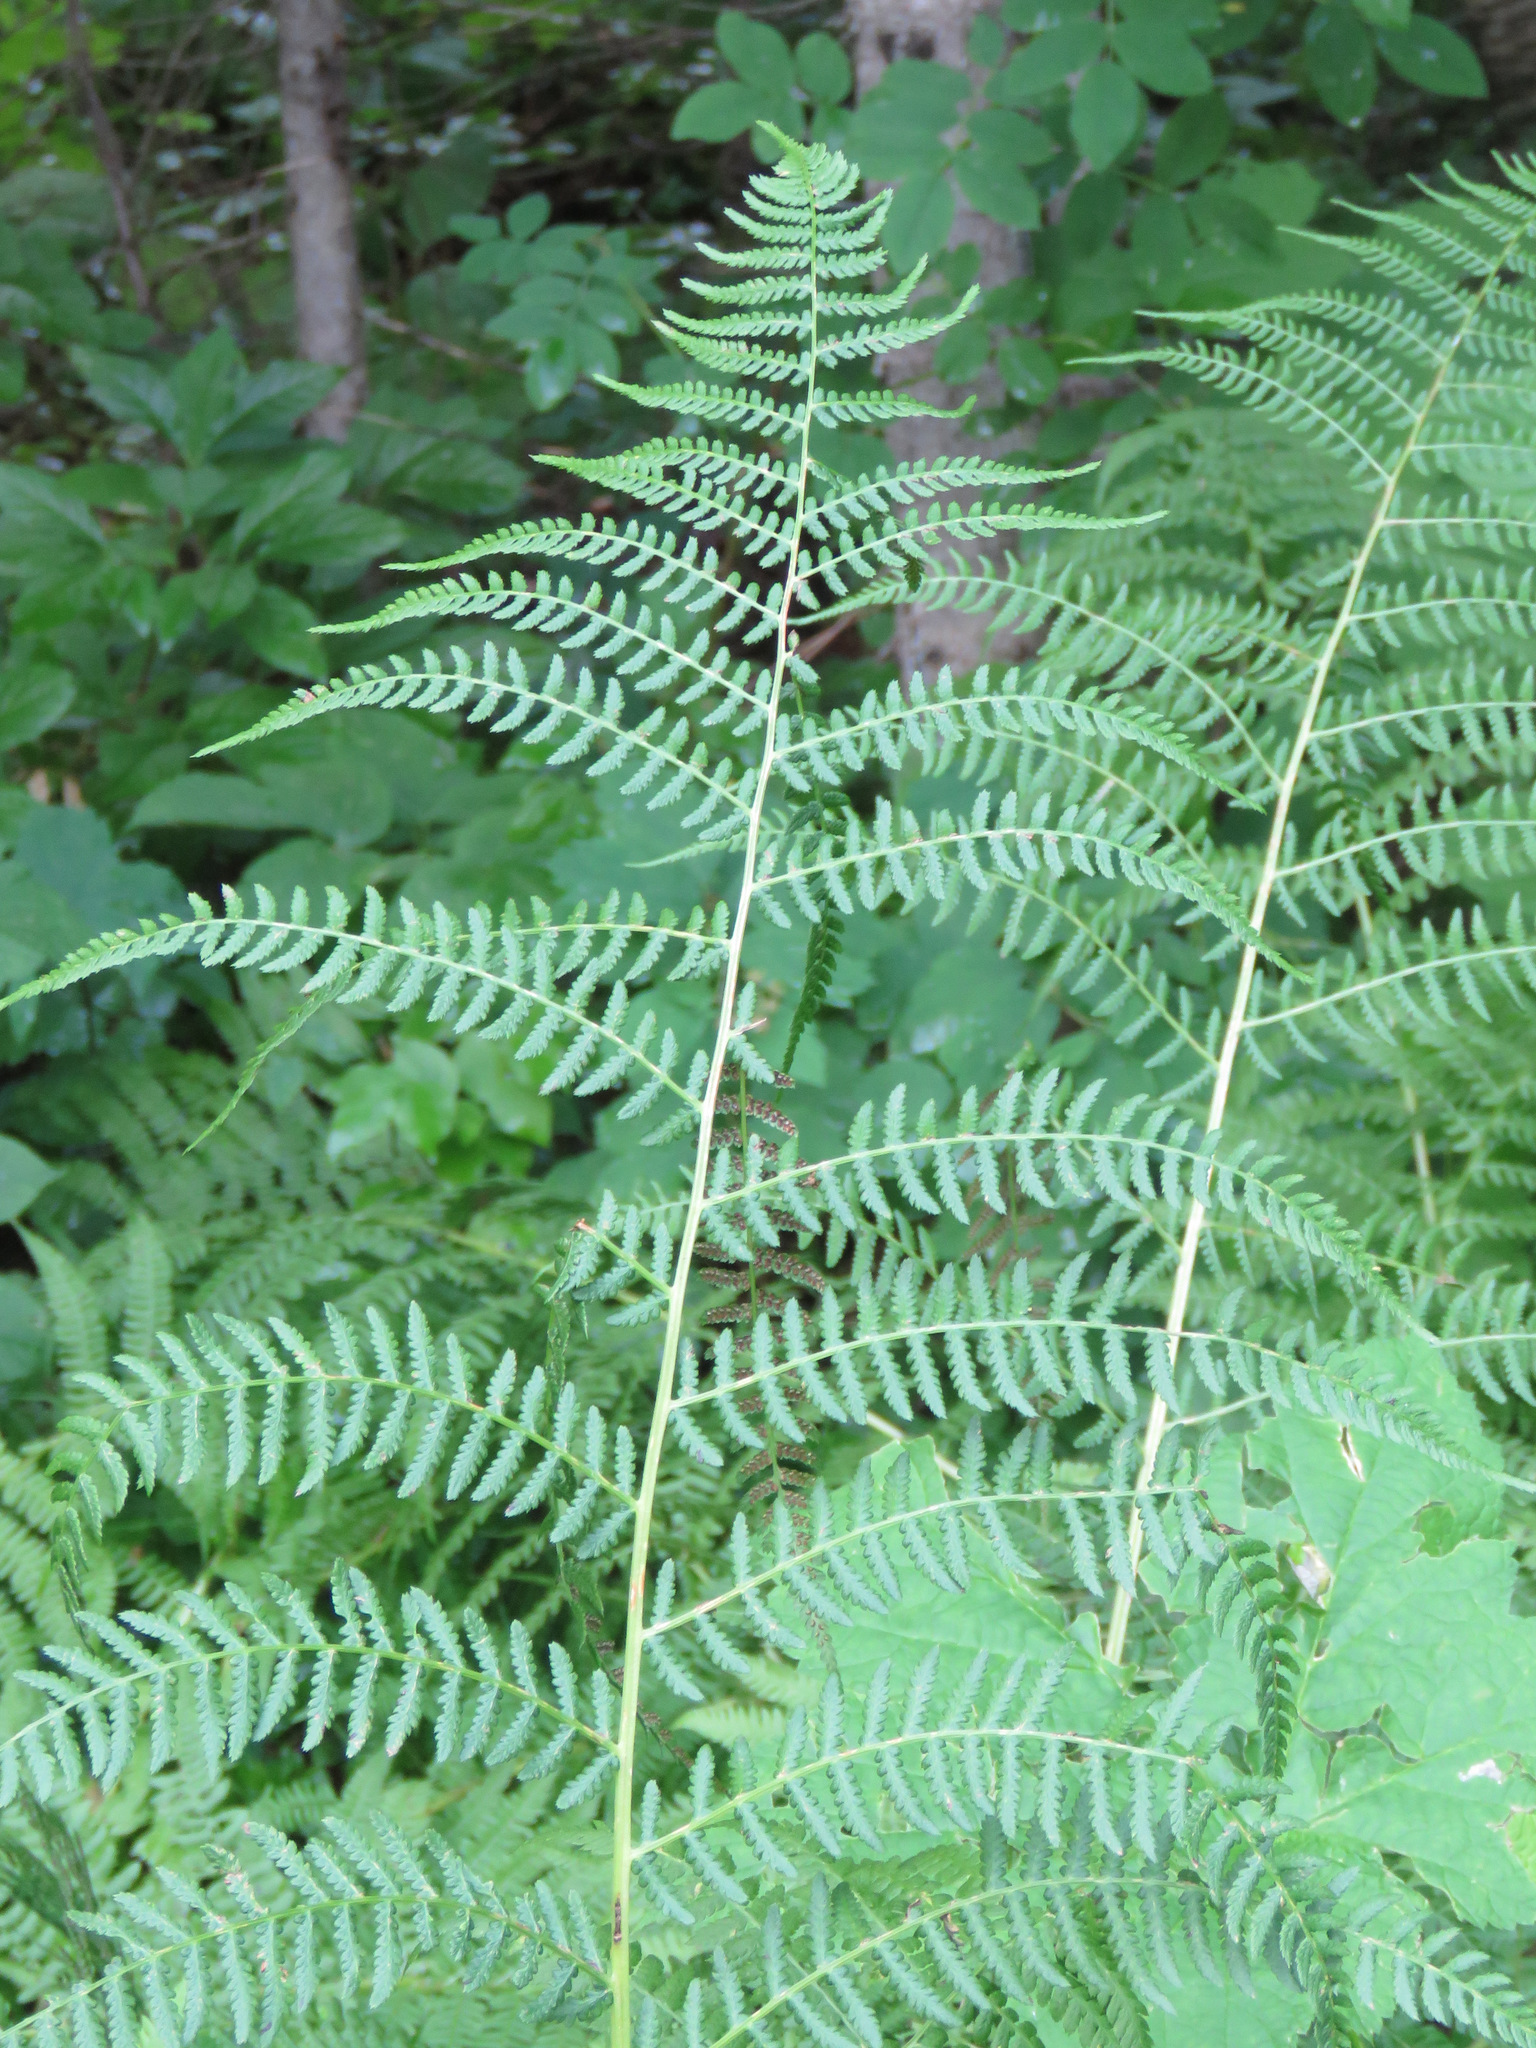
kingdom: Plantae
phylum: Tracheophyta
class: Polypodiopsida
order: Polypodiales
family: Athyriaceae
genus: Athyrium
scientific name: Athyrium filix-femina
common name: Lady fern
